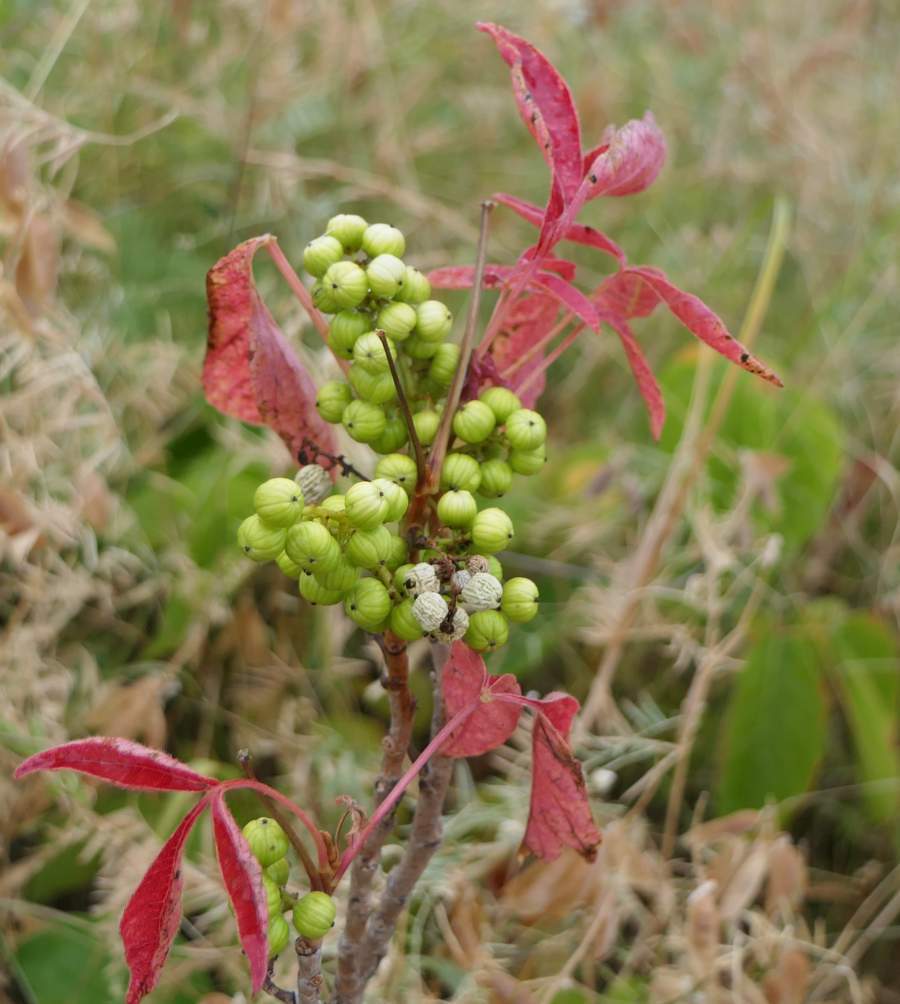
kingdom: Plantae
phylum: Tracheophyta
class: Magnoliopsida
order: Sapindales
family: Anacardiaceae
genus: Toxicodendron
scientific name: Toxicodendron rydbergii
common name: Rydberg's poison-ivy
